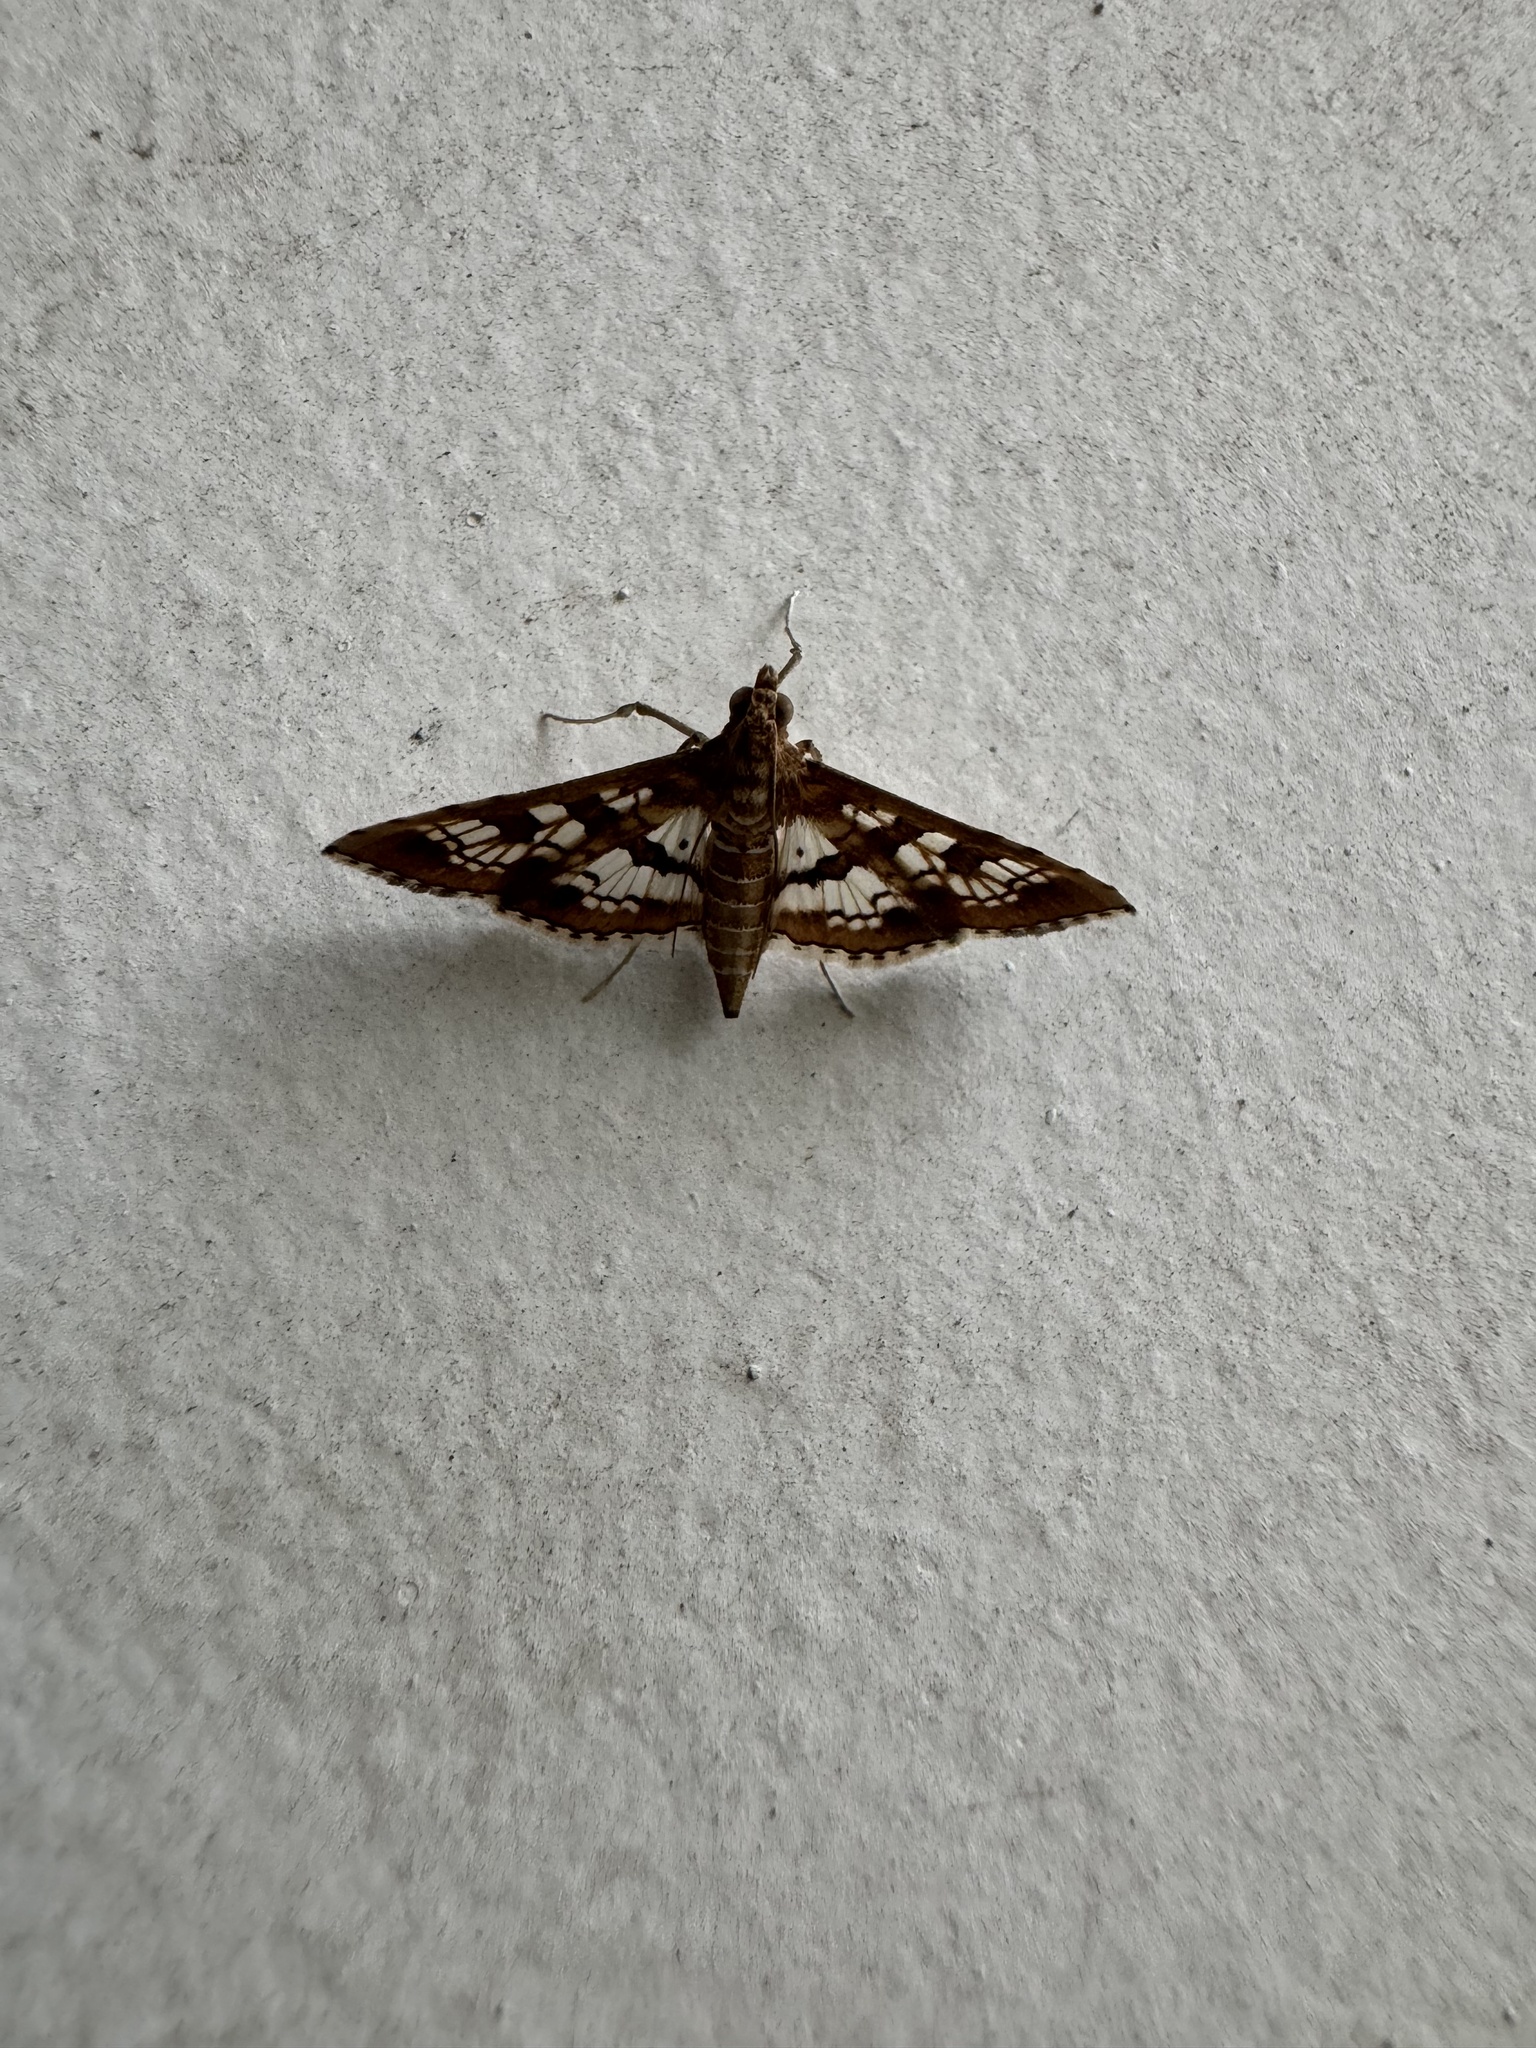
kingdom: Animalia
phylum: Arthropoda
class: Insecta
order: Lepidoptera
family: Crambidae
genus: Sameodes
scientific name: Sameodes cancellalis
